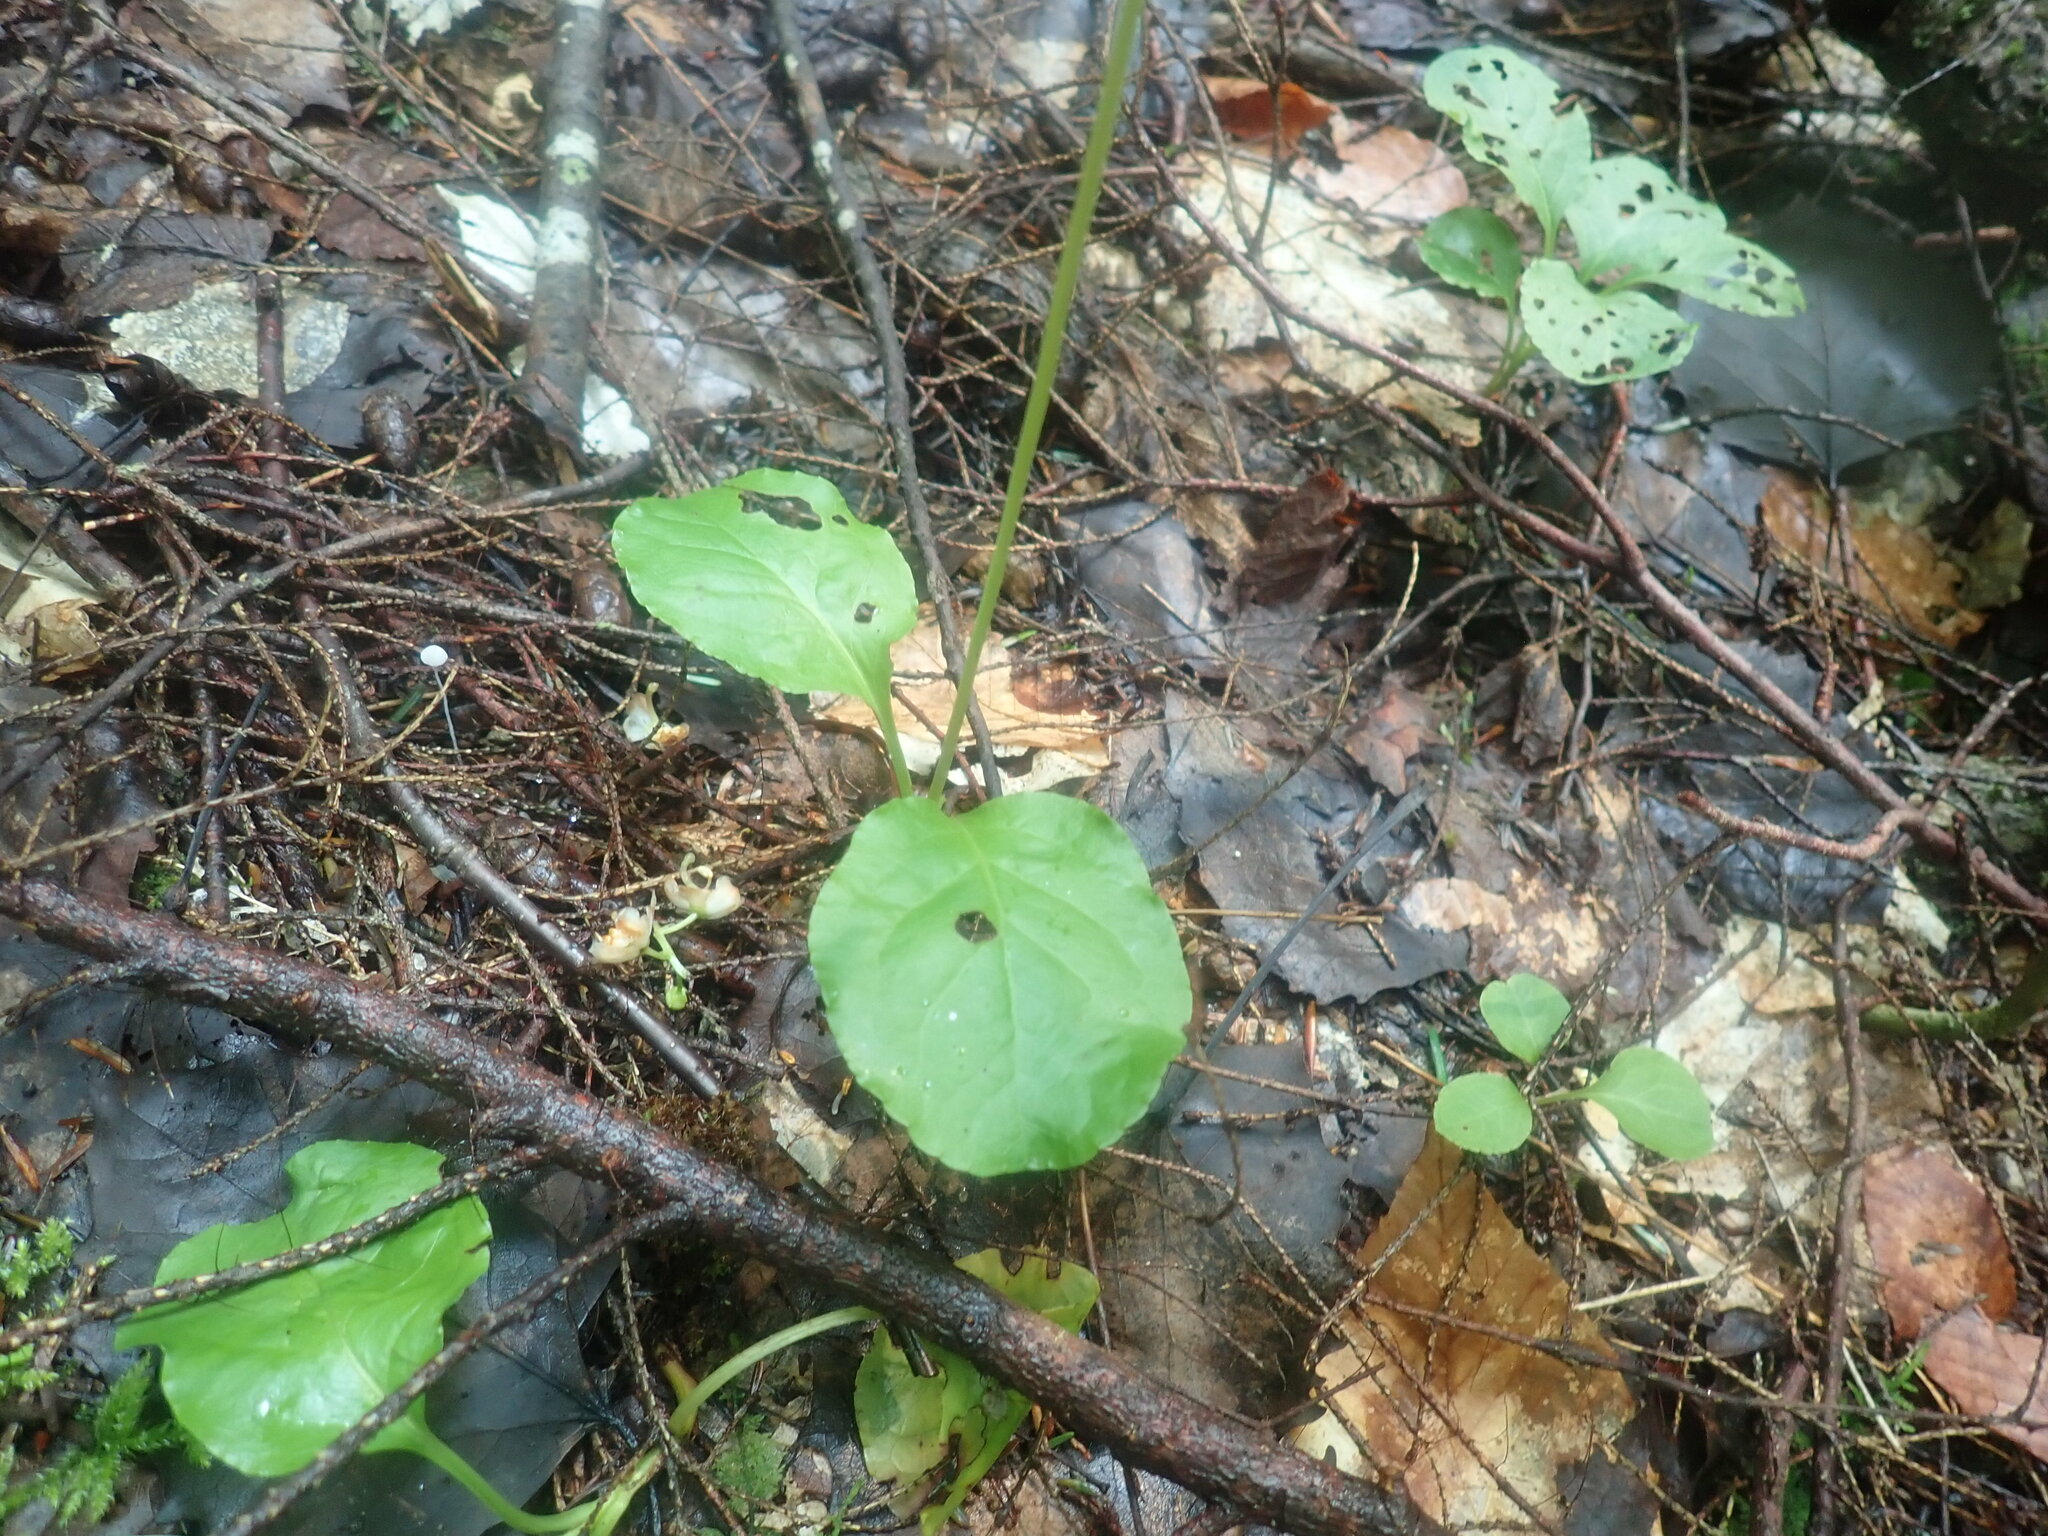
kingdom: Plantae
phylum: Tracheophyta
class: Magnoliopsida
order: Ericales
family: Ericaceae
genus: Pyrola
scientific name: Pyrola elliptica
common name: Shinleaf
